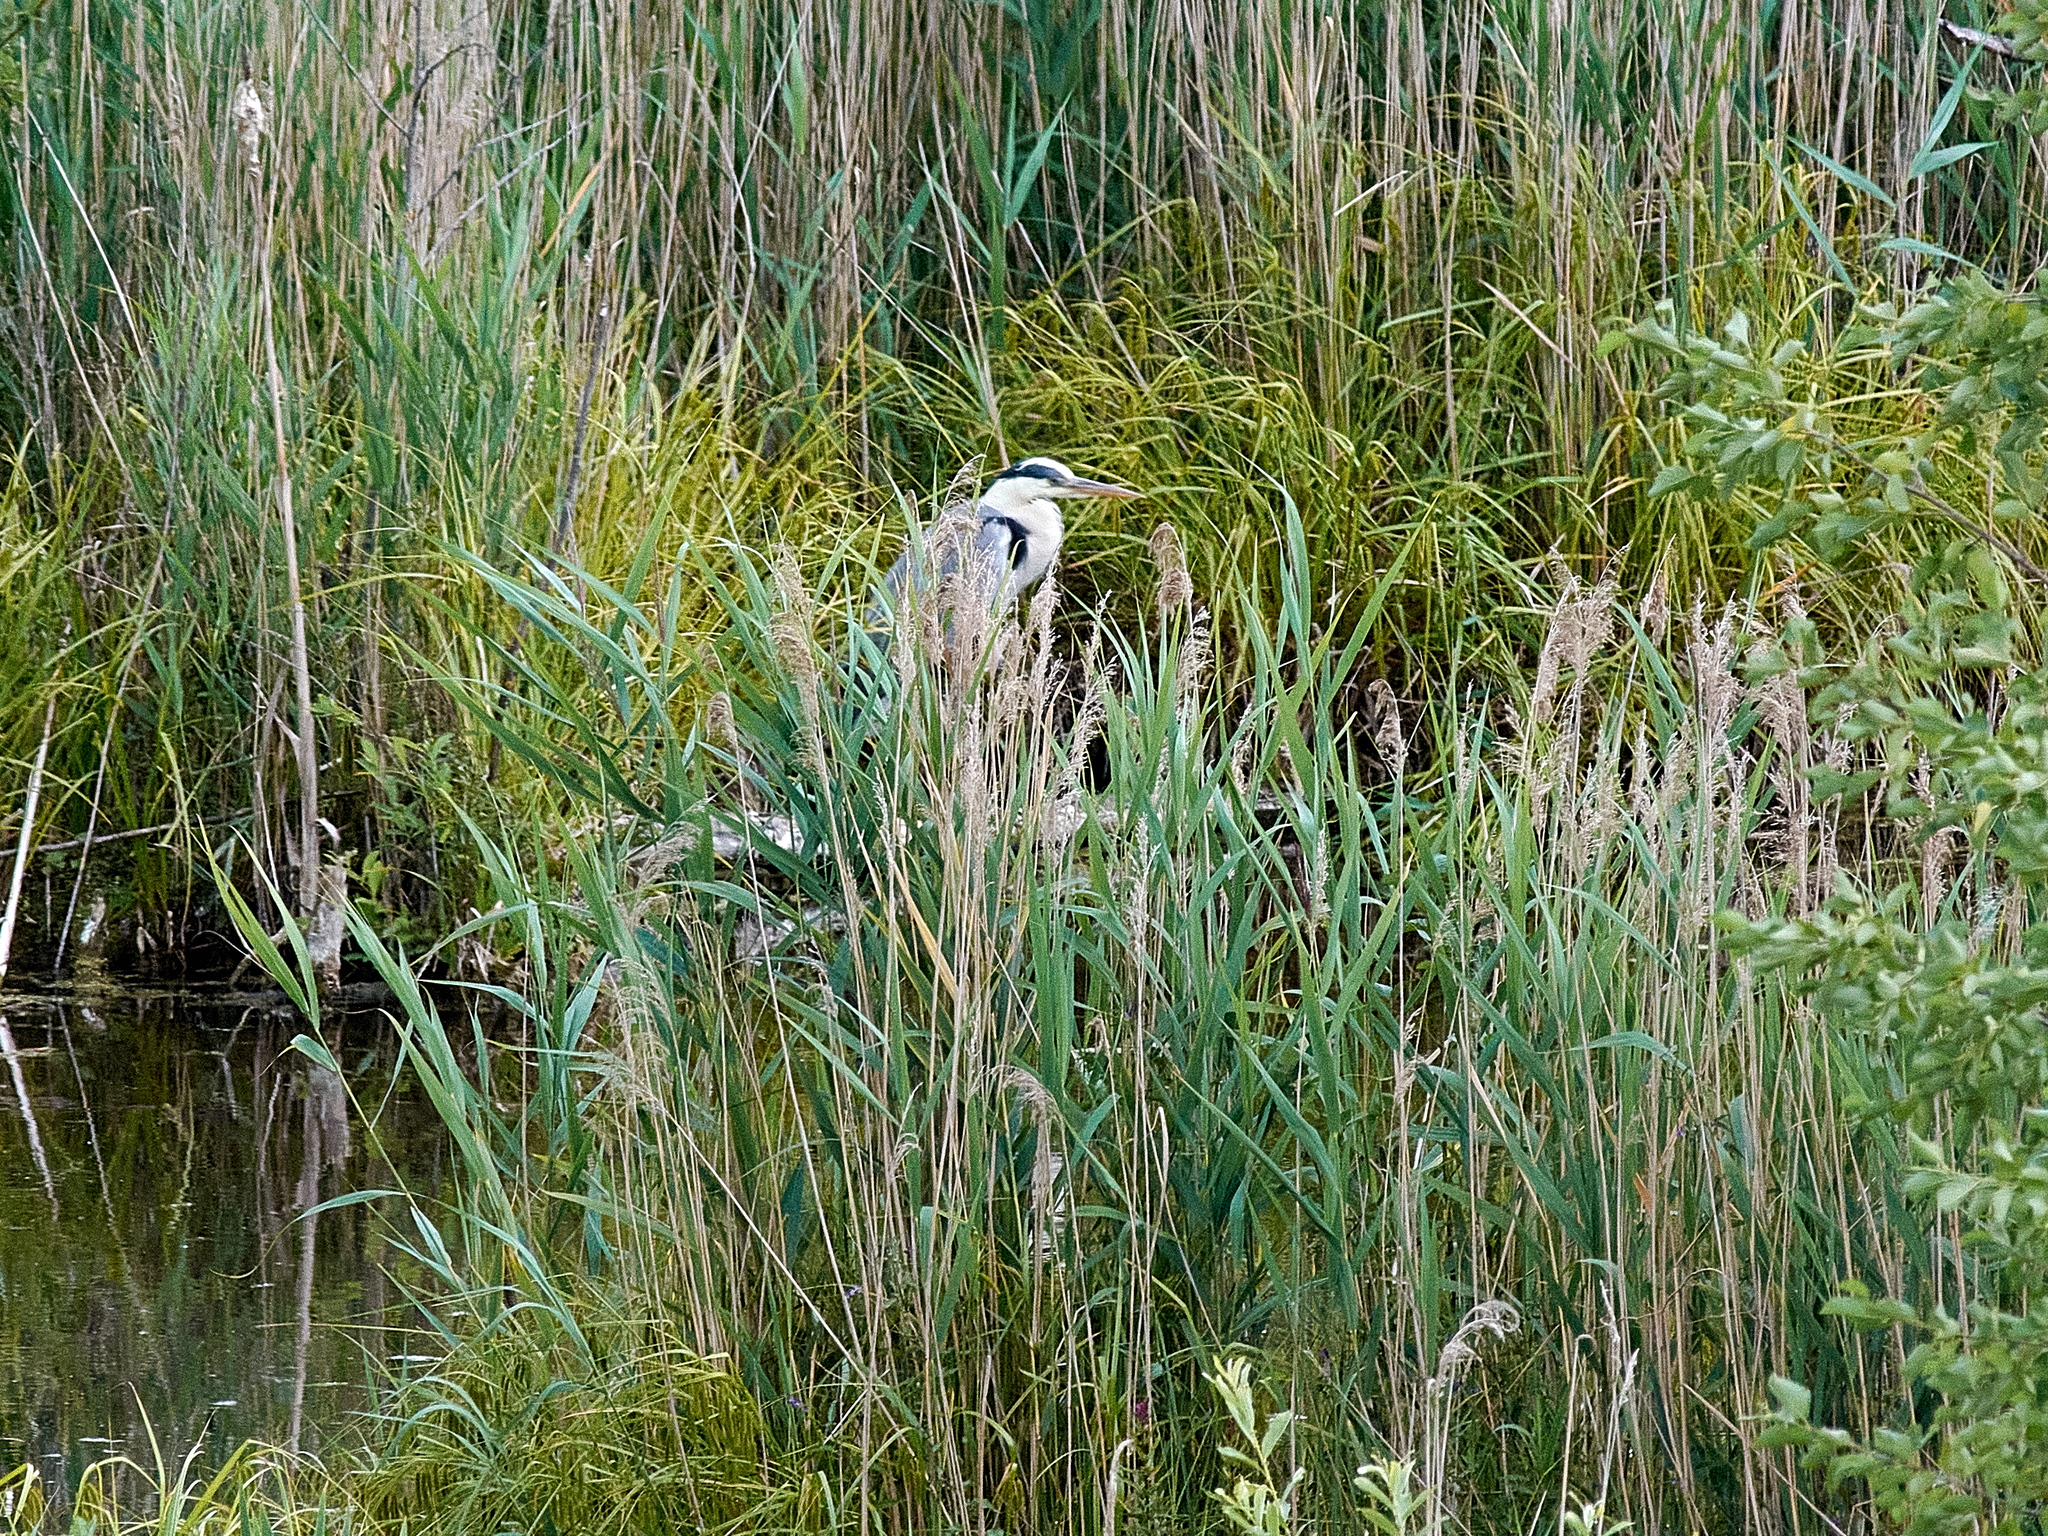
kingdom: Animalia
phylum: Chordata
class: Aves
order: Pelecaniformes
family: Ardeidae
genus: Ardea
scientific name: Ardea cinerea
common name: Grey heron
